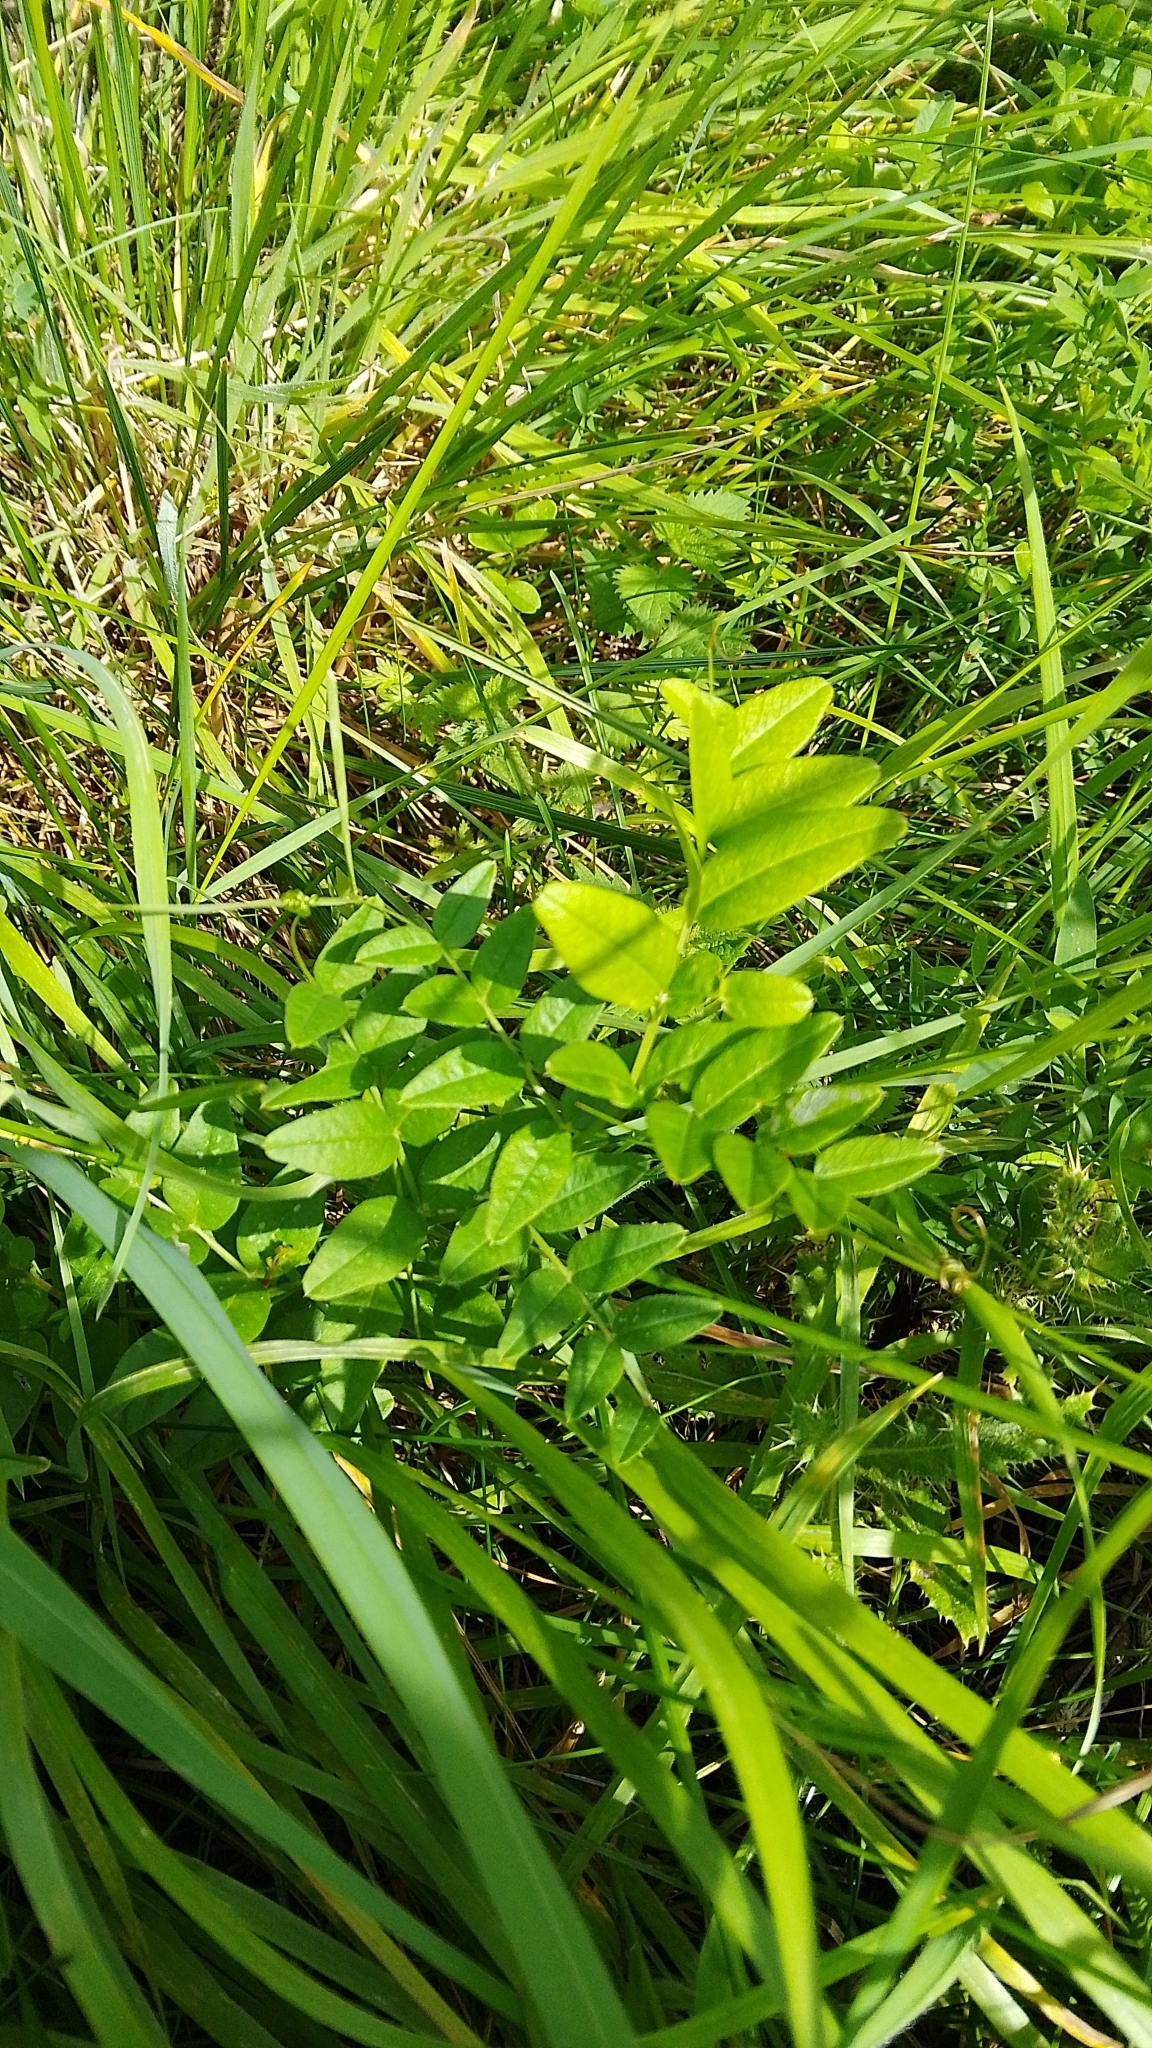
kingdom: Plantae
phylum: Tracheophyta
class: Magnoliopsida
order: Fabales
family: Fabaceae
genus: Vicia
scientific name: Vicia sepium
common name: Bush vetch
